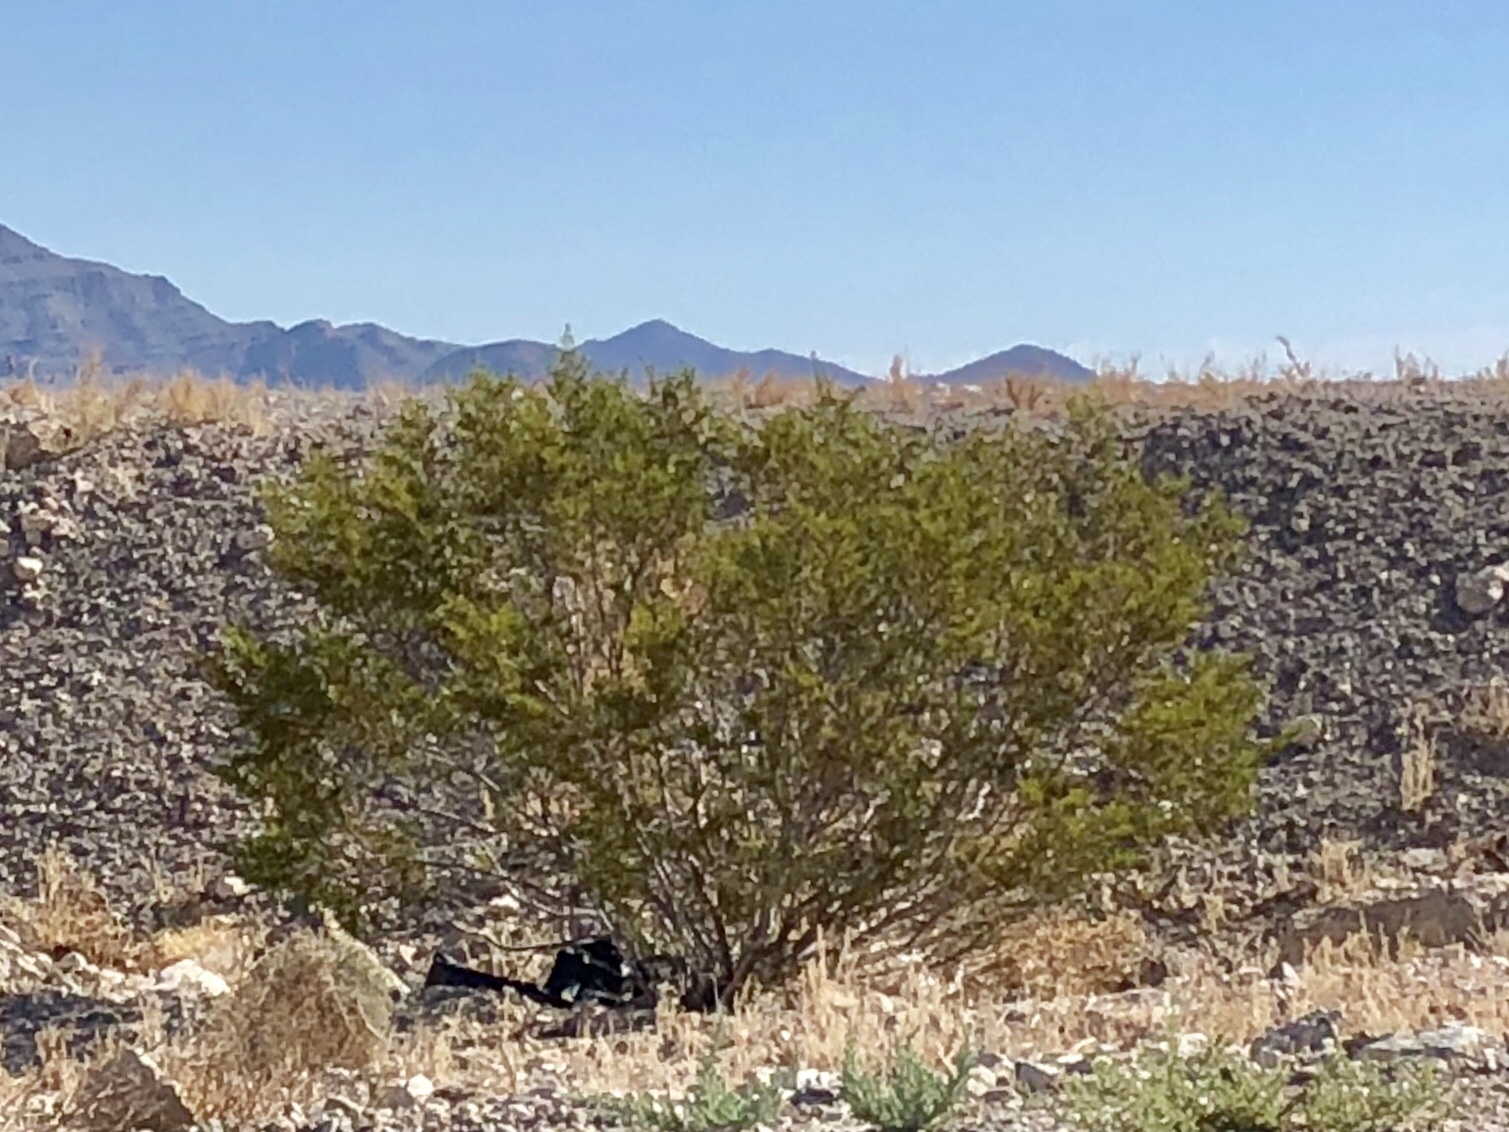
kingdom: Plantae
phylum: Tracheophyta
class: Magnoliopsida
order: Zygophyllales
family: Zygophyllaceae
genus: Larrea
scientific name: Larrea tridentata
